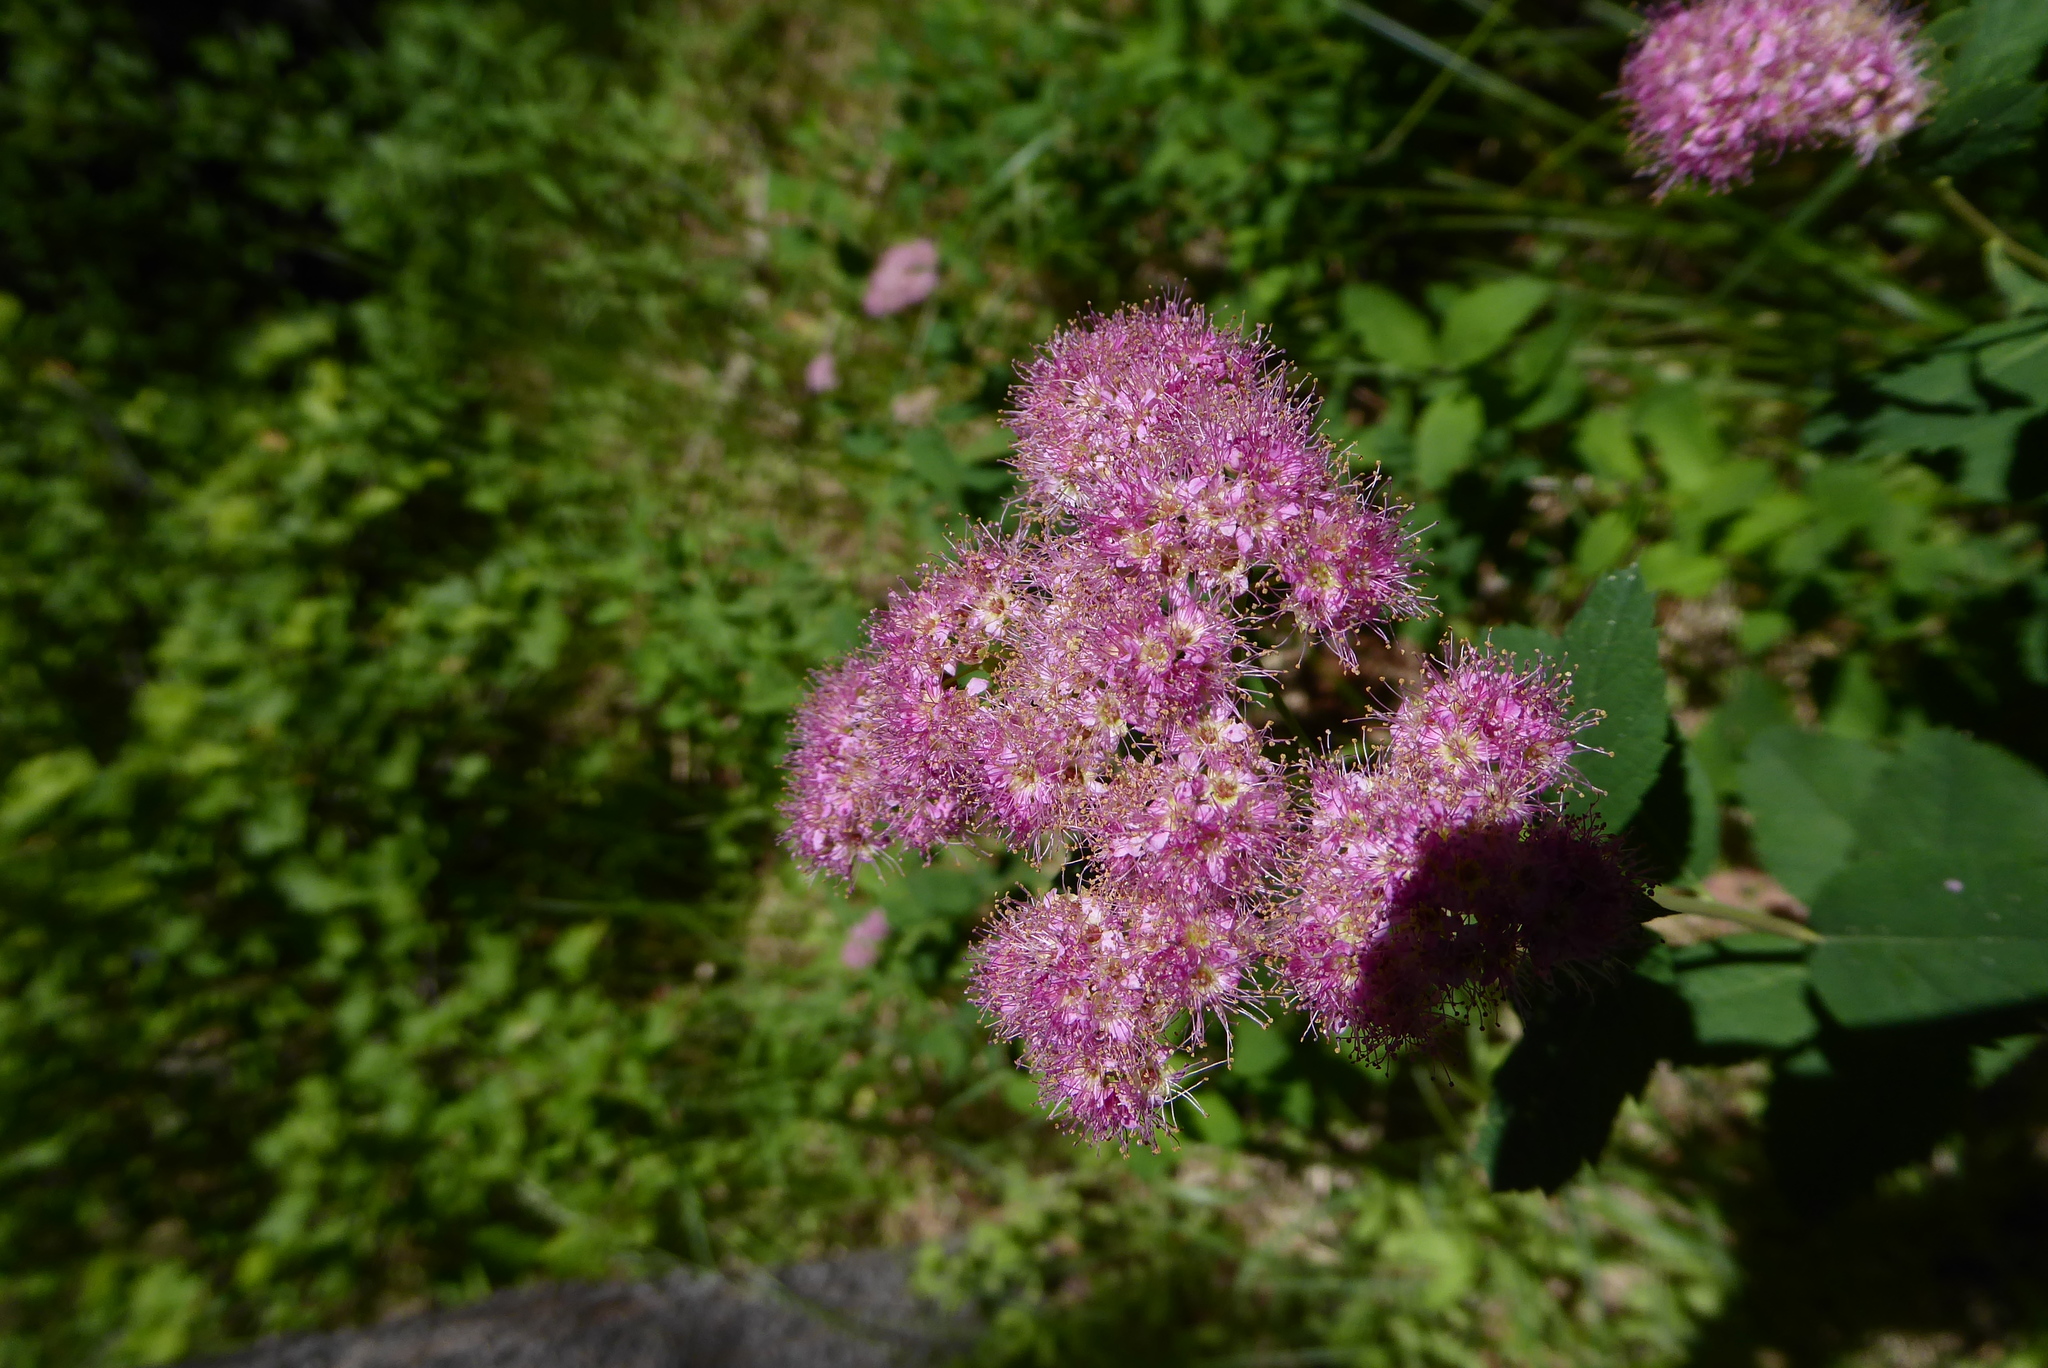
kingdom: Plantae
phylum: Tracheophyta
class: Magnoliopsida
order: Rosales
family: Rosaceae
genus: Spiraea
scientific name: Spiraea splendens
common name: Subalpine meadowsweet
